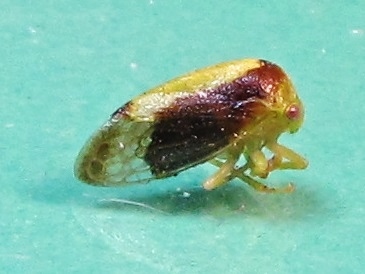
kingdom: Animalia
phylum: Arthropoda
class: Insecta
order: Hemiptera
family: Membracidae
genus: Atymna
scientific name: Atymna querci
